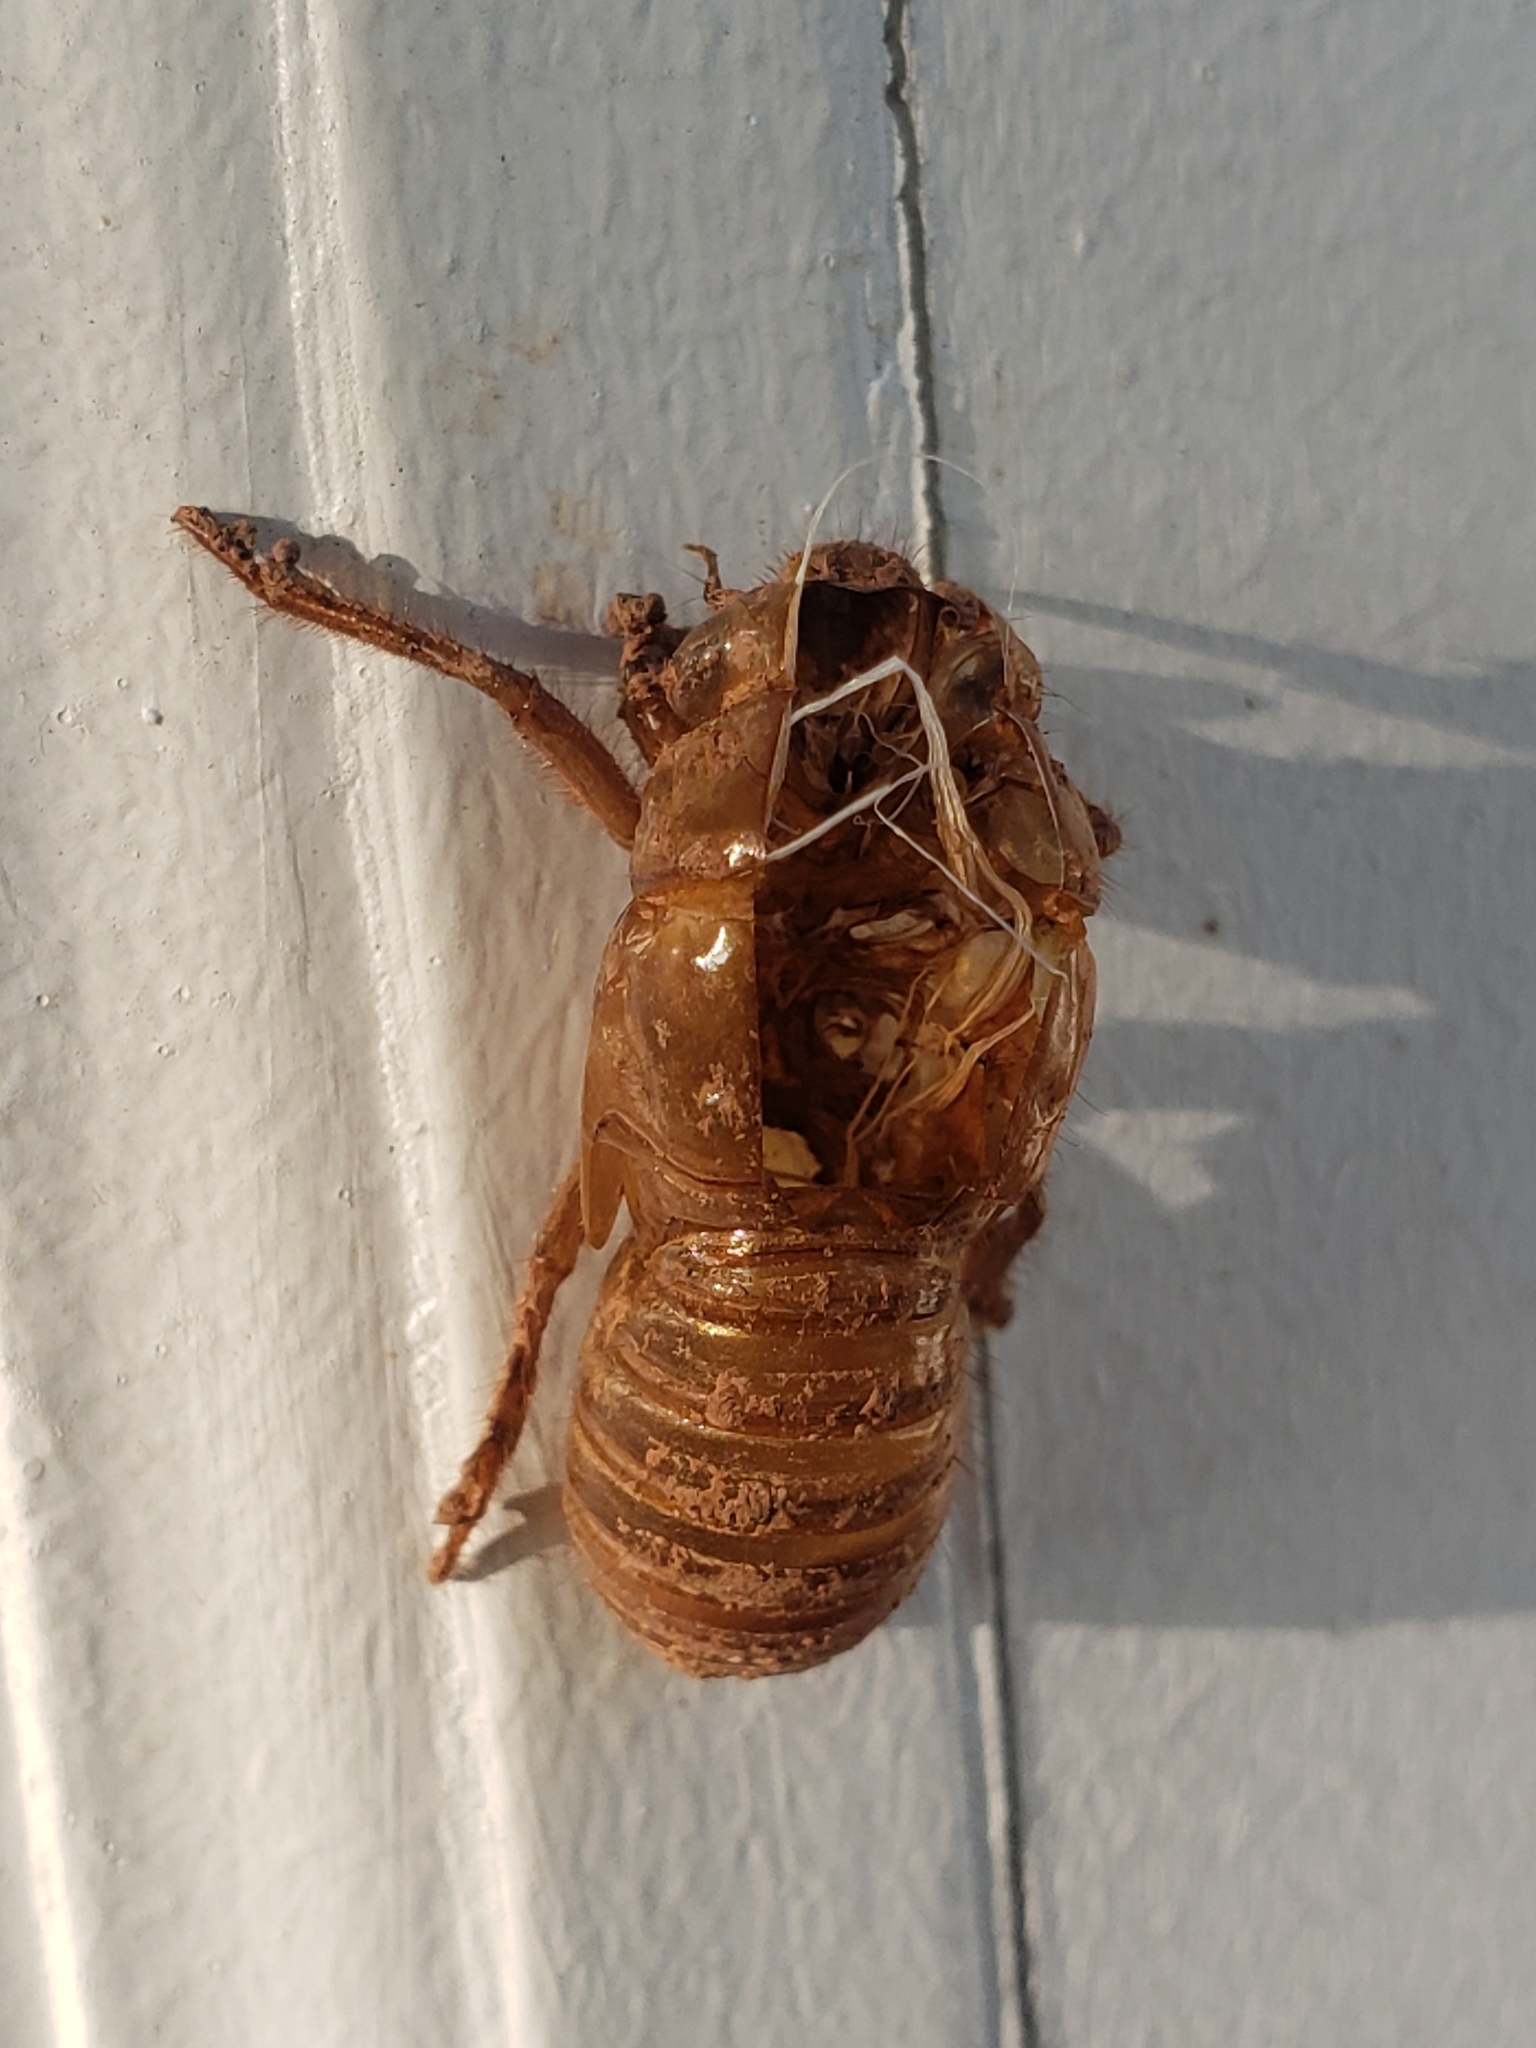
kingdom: Animalia
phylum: Arthropoda
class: Insecta
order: Hemiptera
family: Cicadidae
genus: Magicicada
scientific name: Magicicada
